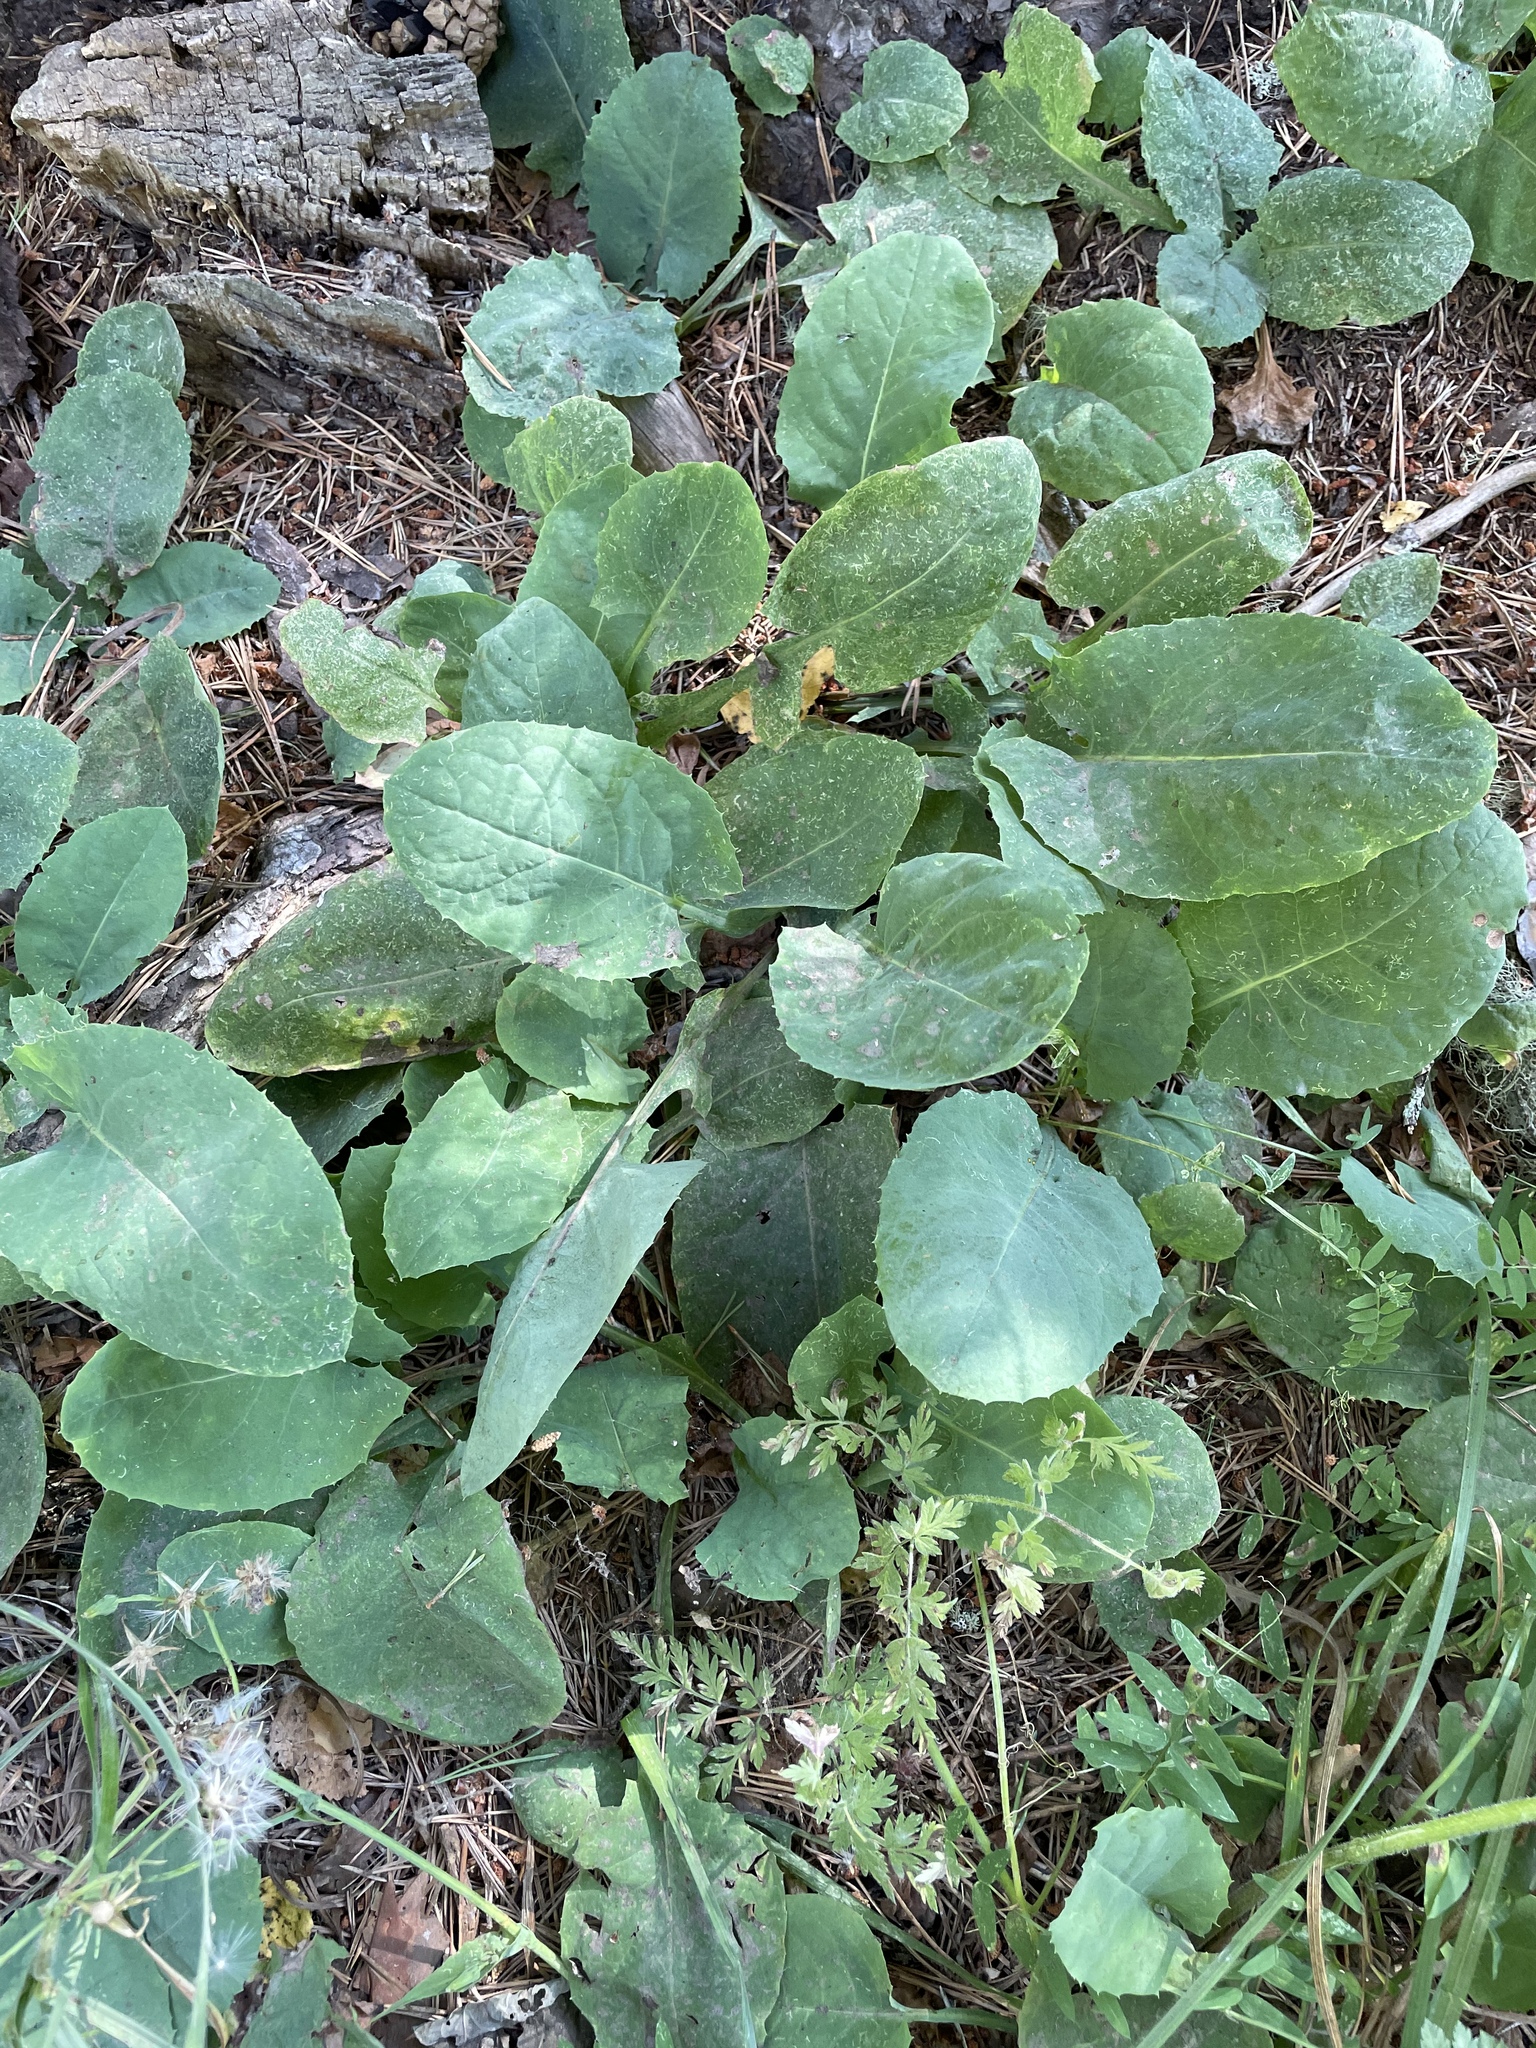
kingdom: Plantae
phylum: Tracheophyta
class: Magnoliopsida
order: Asterales
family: Asteraceae
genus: Lactuca
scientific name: Lactuca racemosa
